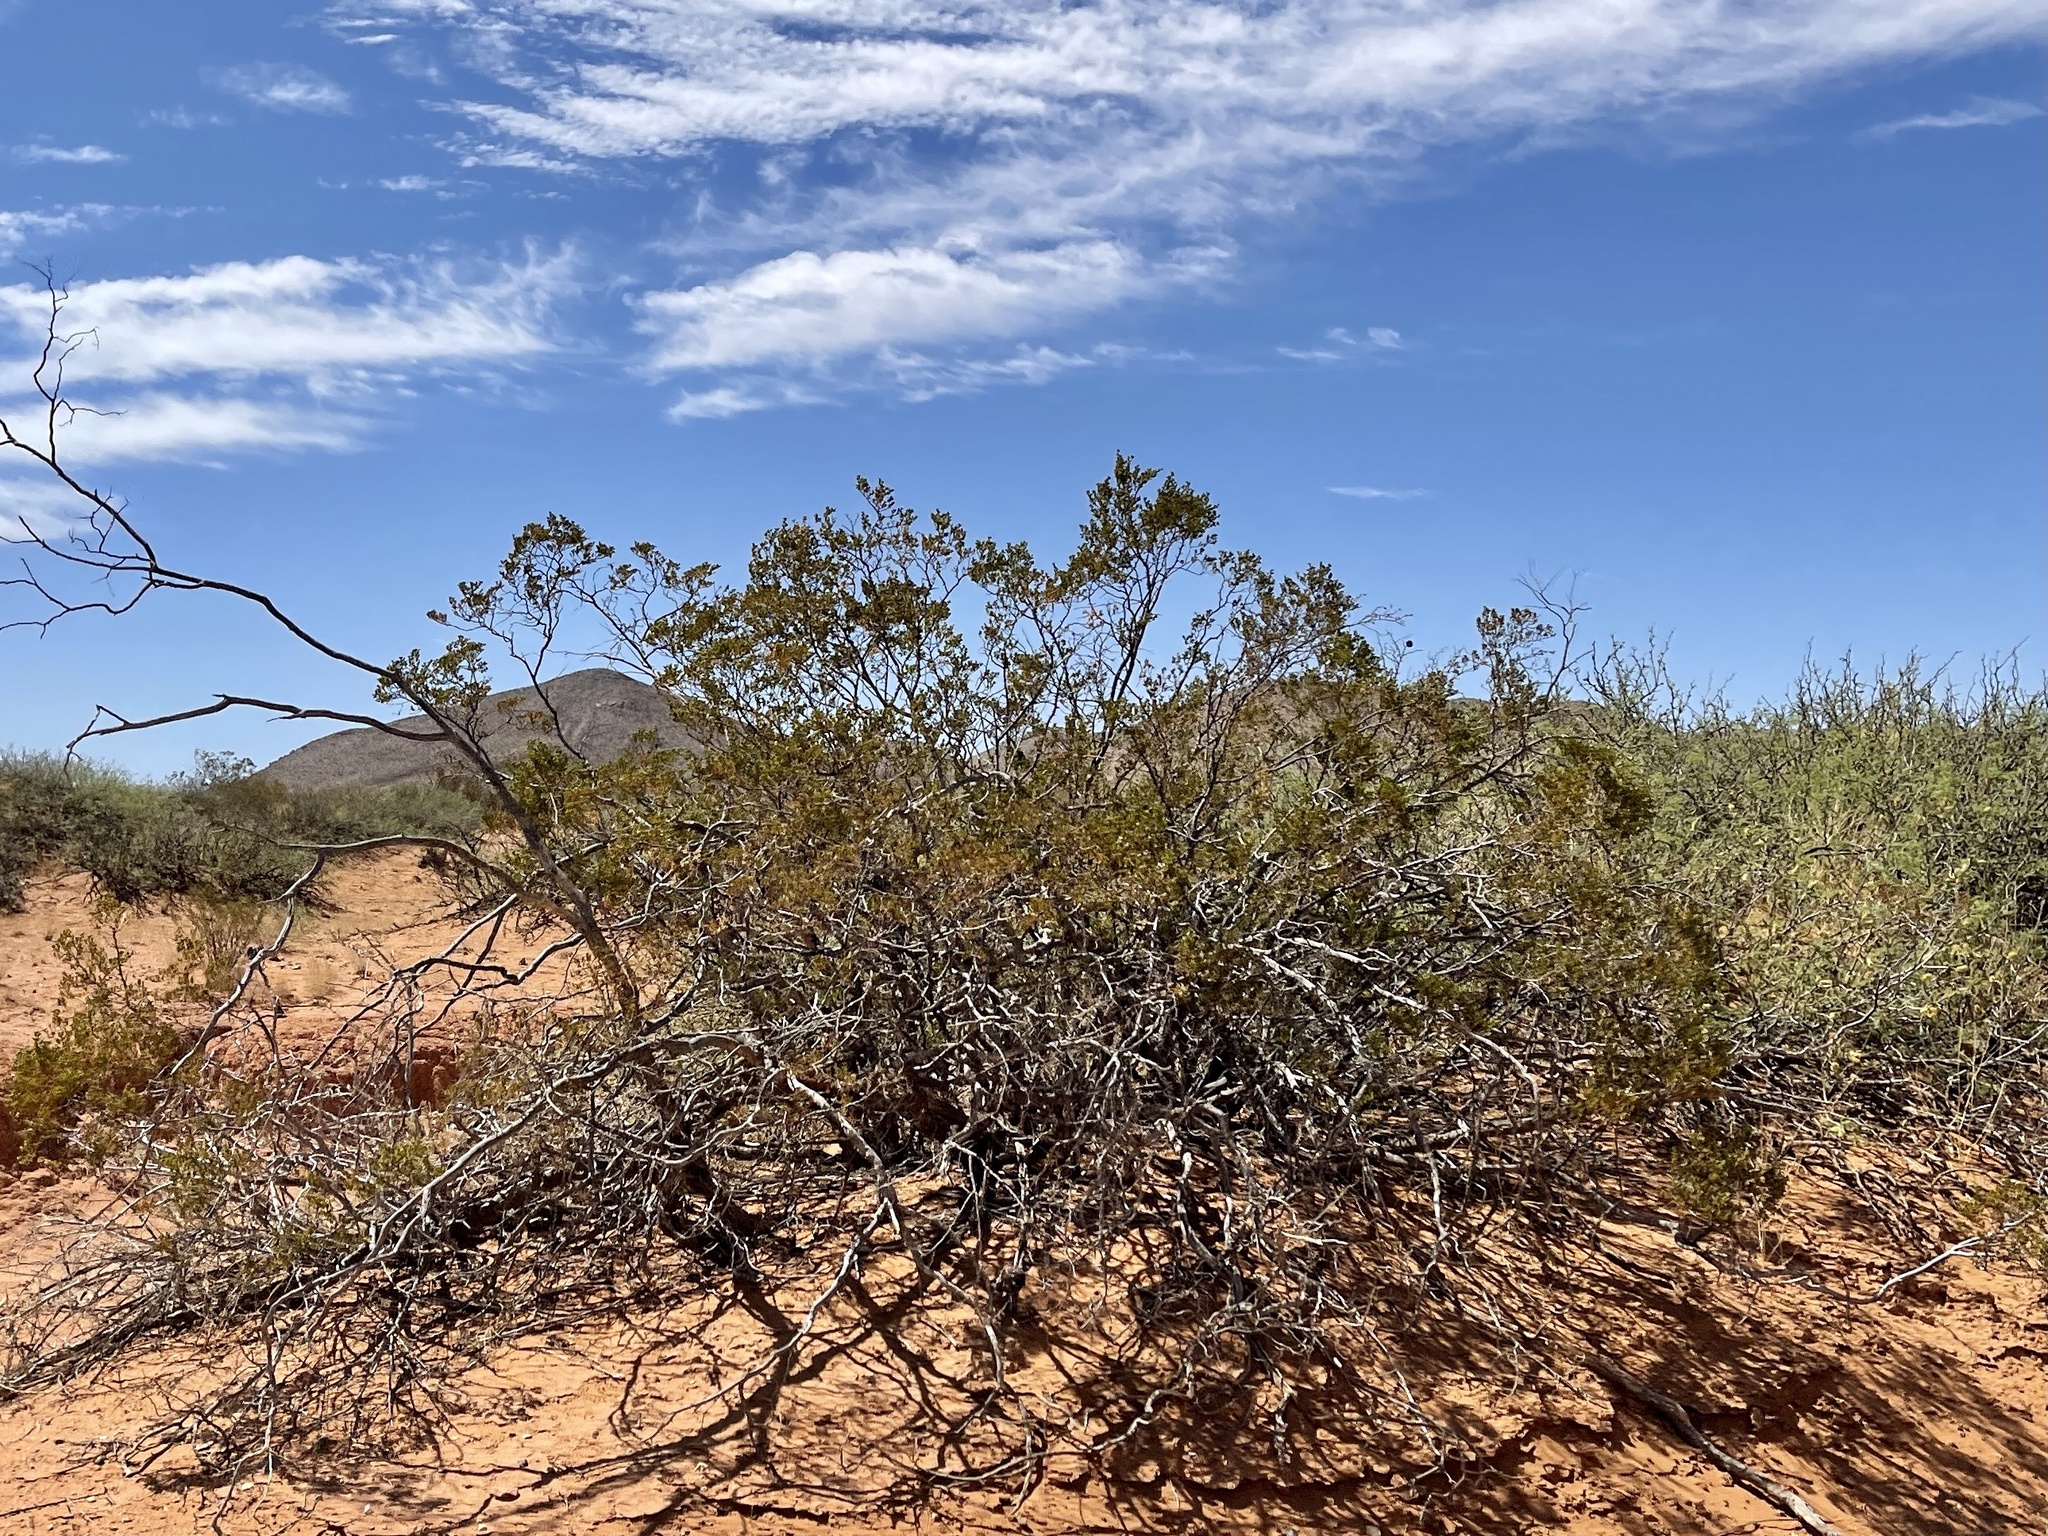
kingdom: Plantae
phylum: Tracheophyta
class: Magnoliopsida
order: Zygophyllales
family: Zygophyllaceae
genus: Larrea
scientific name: Larrea tridentata
